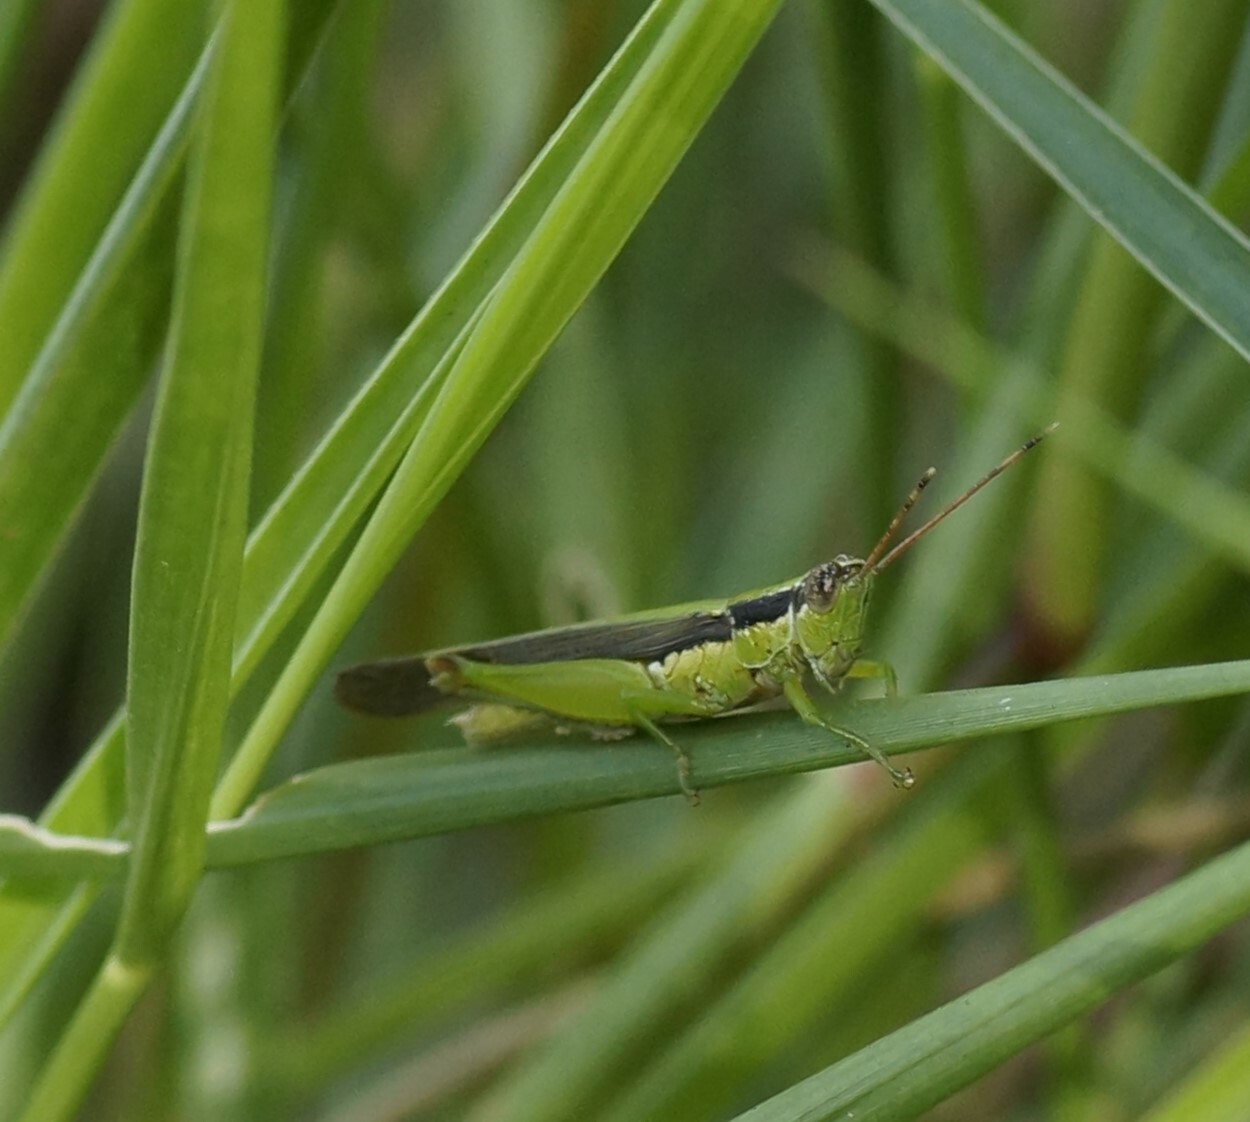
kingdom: Animalia
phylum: Arthropoda
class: Insecta
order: Orthoptera
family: Acrididae
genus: Gesonula
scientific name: Gesonula mundata
